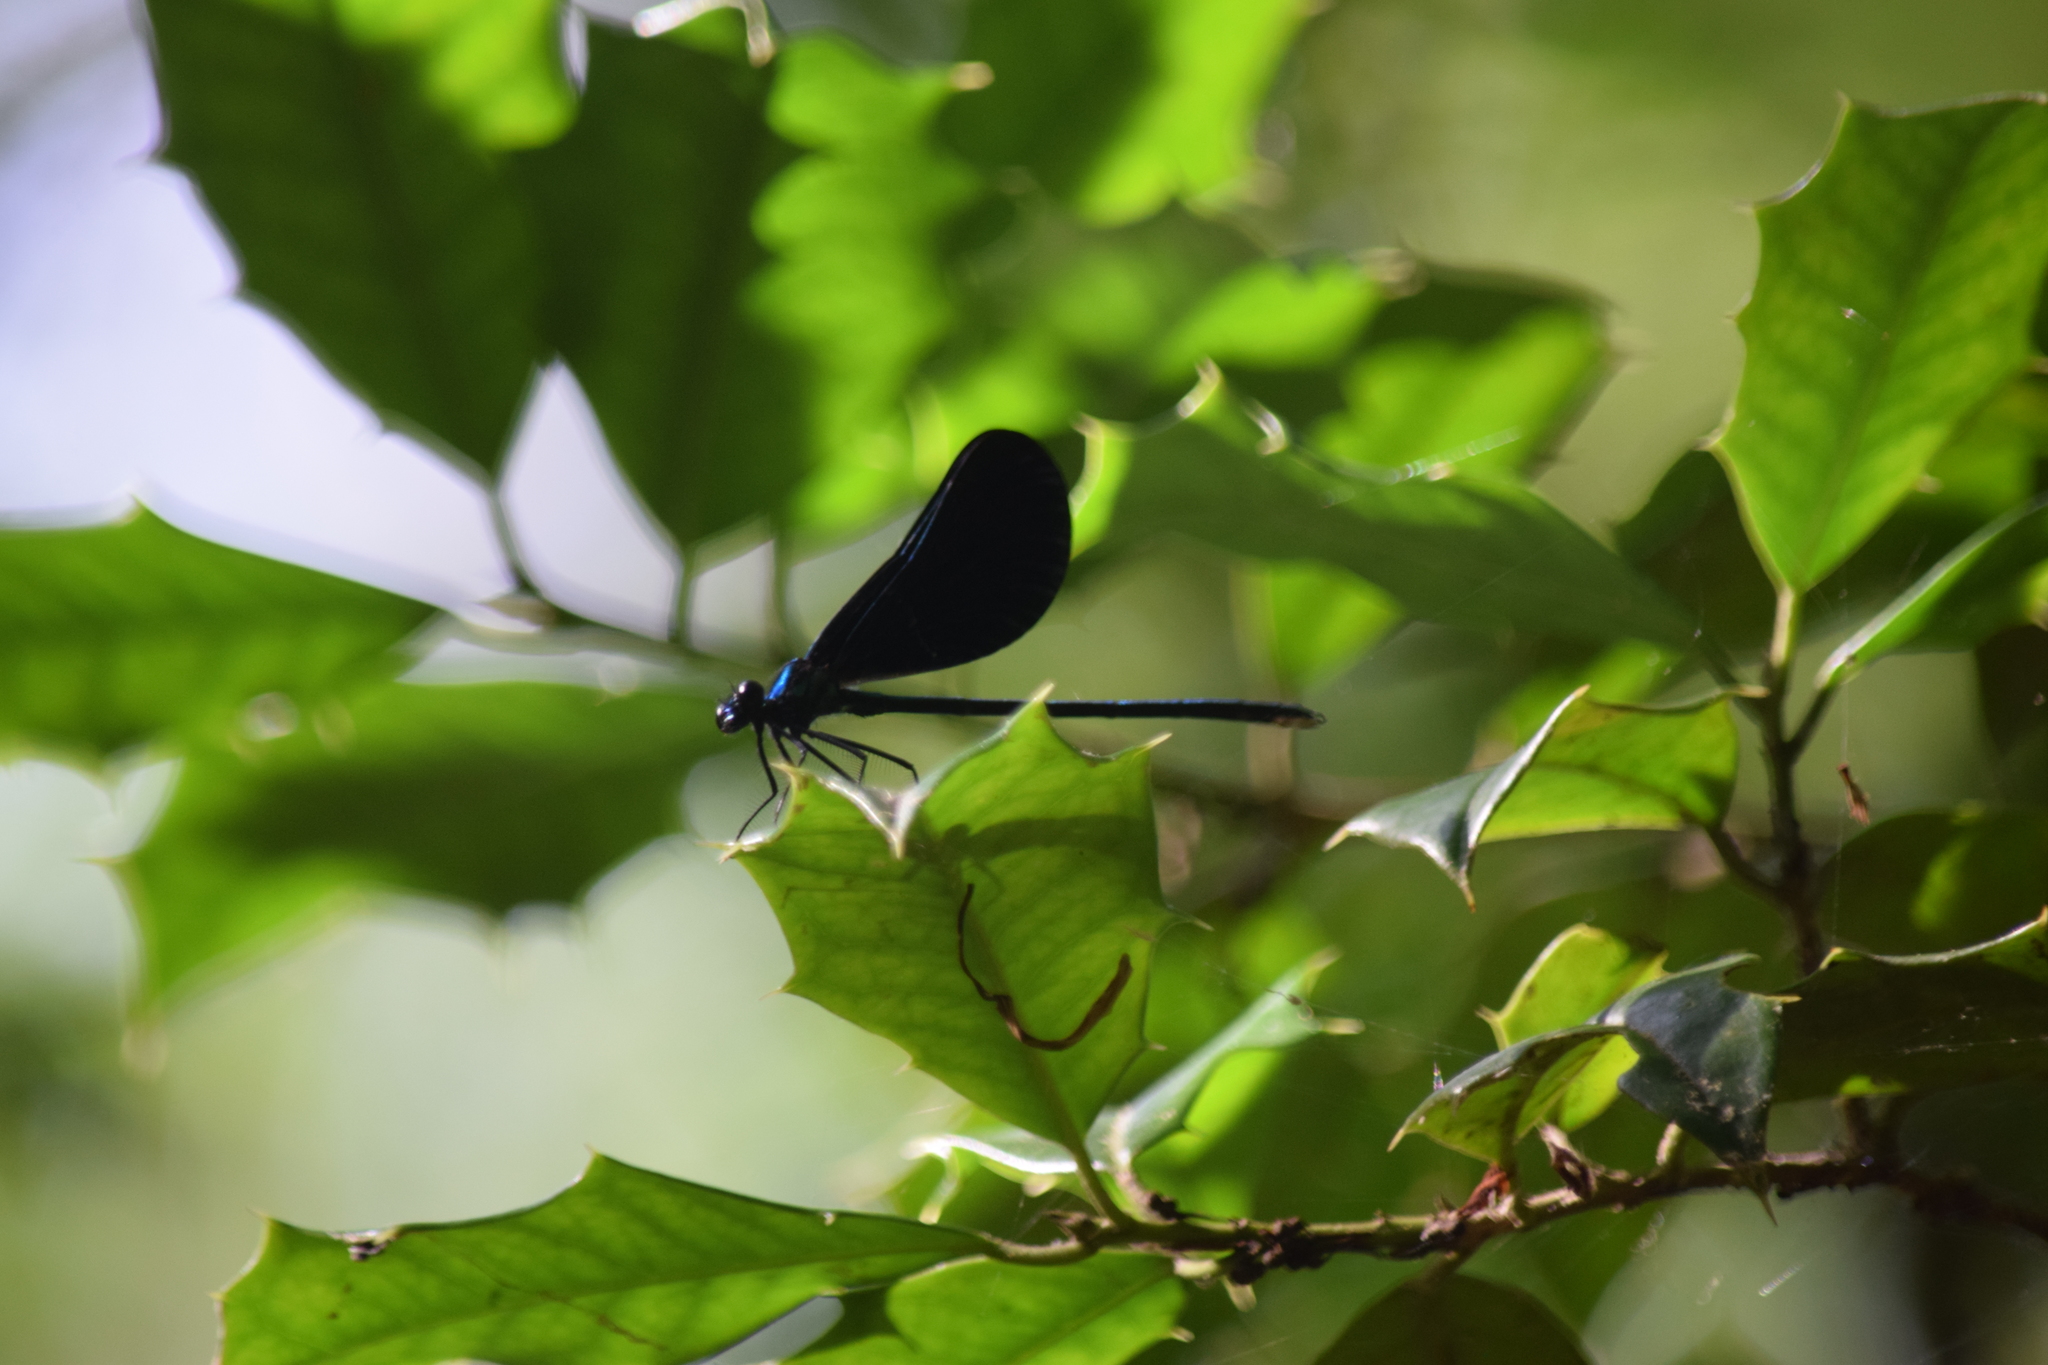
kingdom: Animalia
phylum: Arthropoda
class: Insecta
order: Odonata
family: Calopterygidae
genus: Calopteryx
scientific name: Calopteryx maculata
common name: Ebony jewelwing
